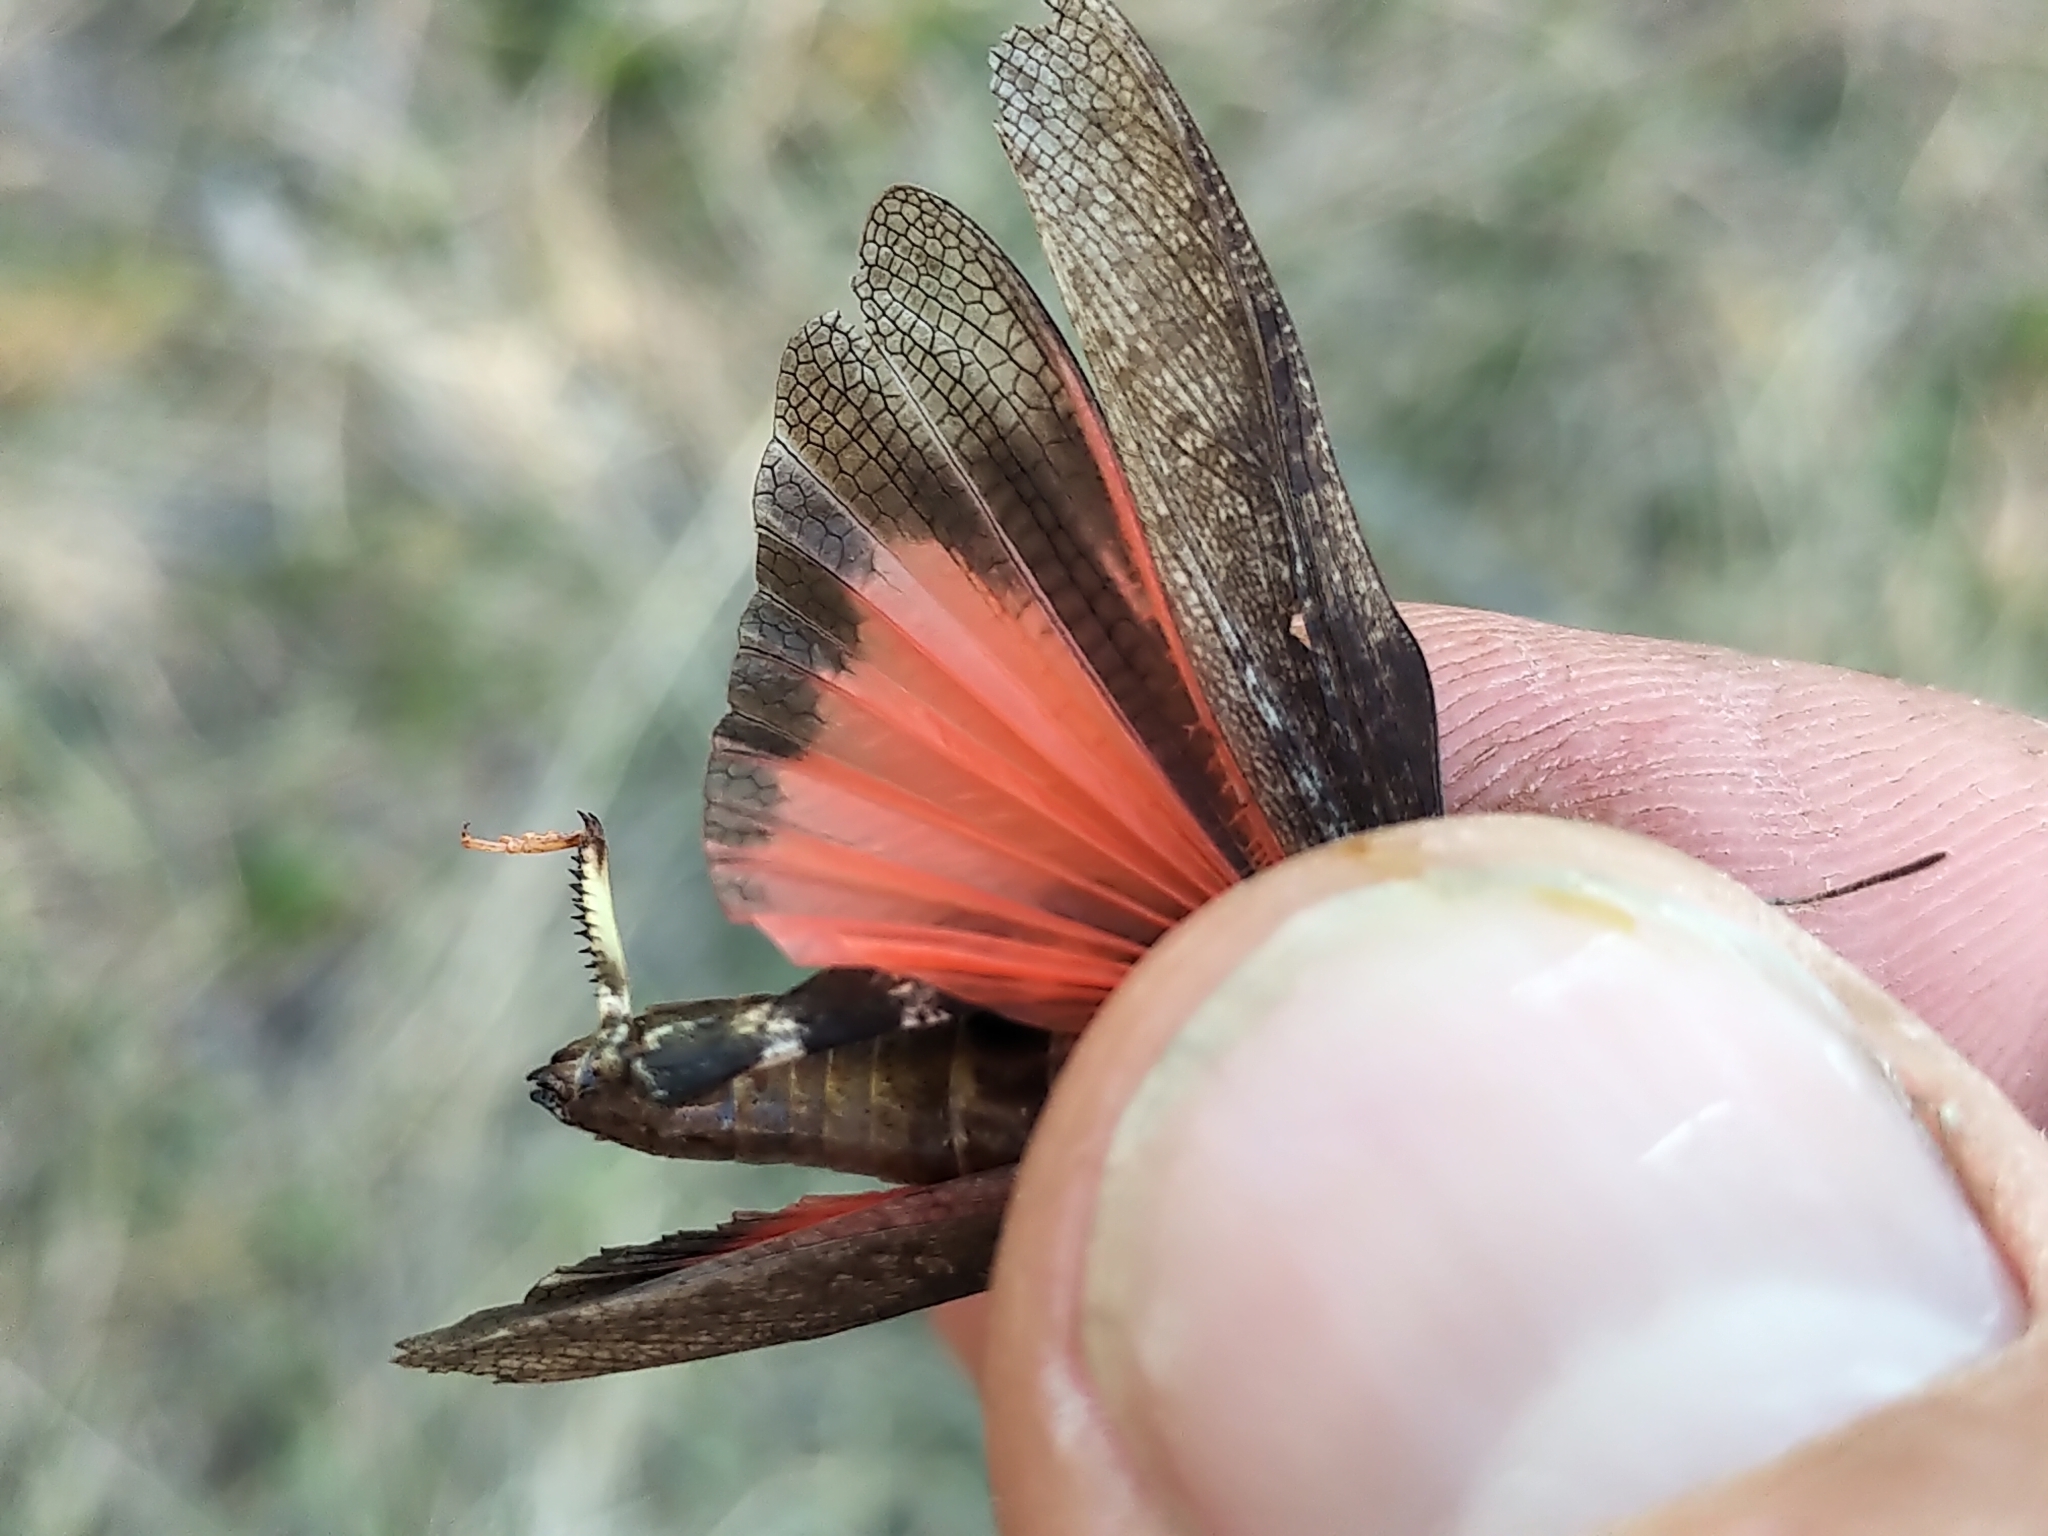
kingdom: Animalia
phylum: Arthropoda
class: Insecta
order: Orthoptera
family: Acrididae
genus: Arphia
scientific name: Arphia conspersa
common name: Speckle-winged rangeland grasshopper
